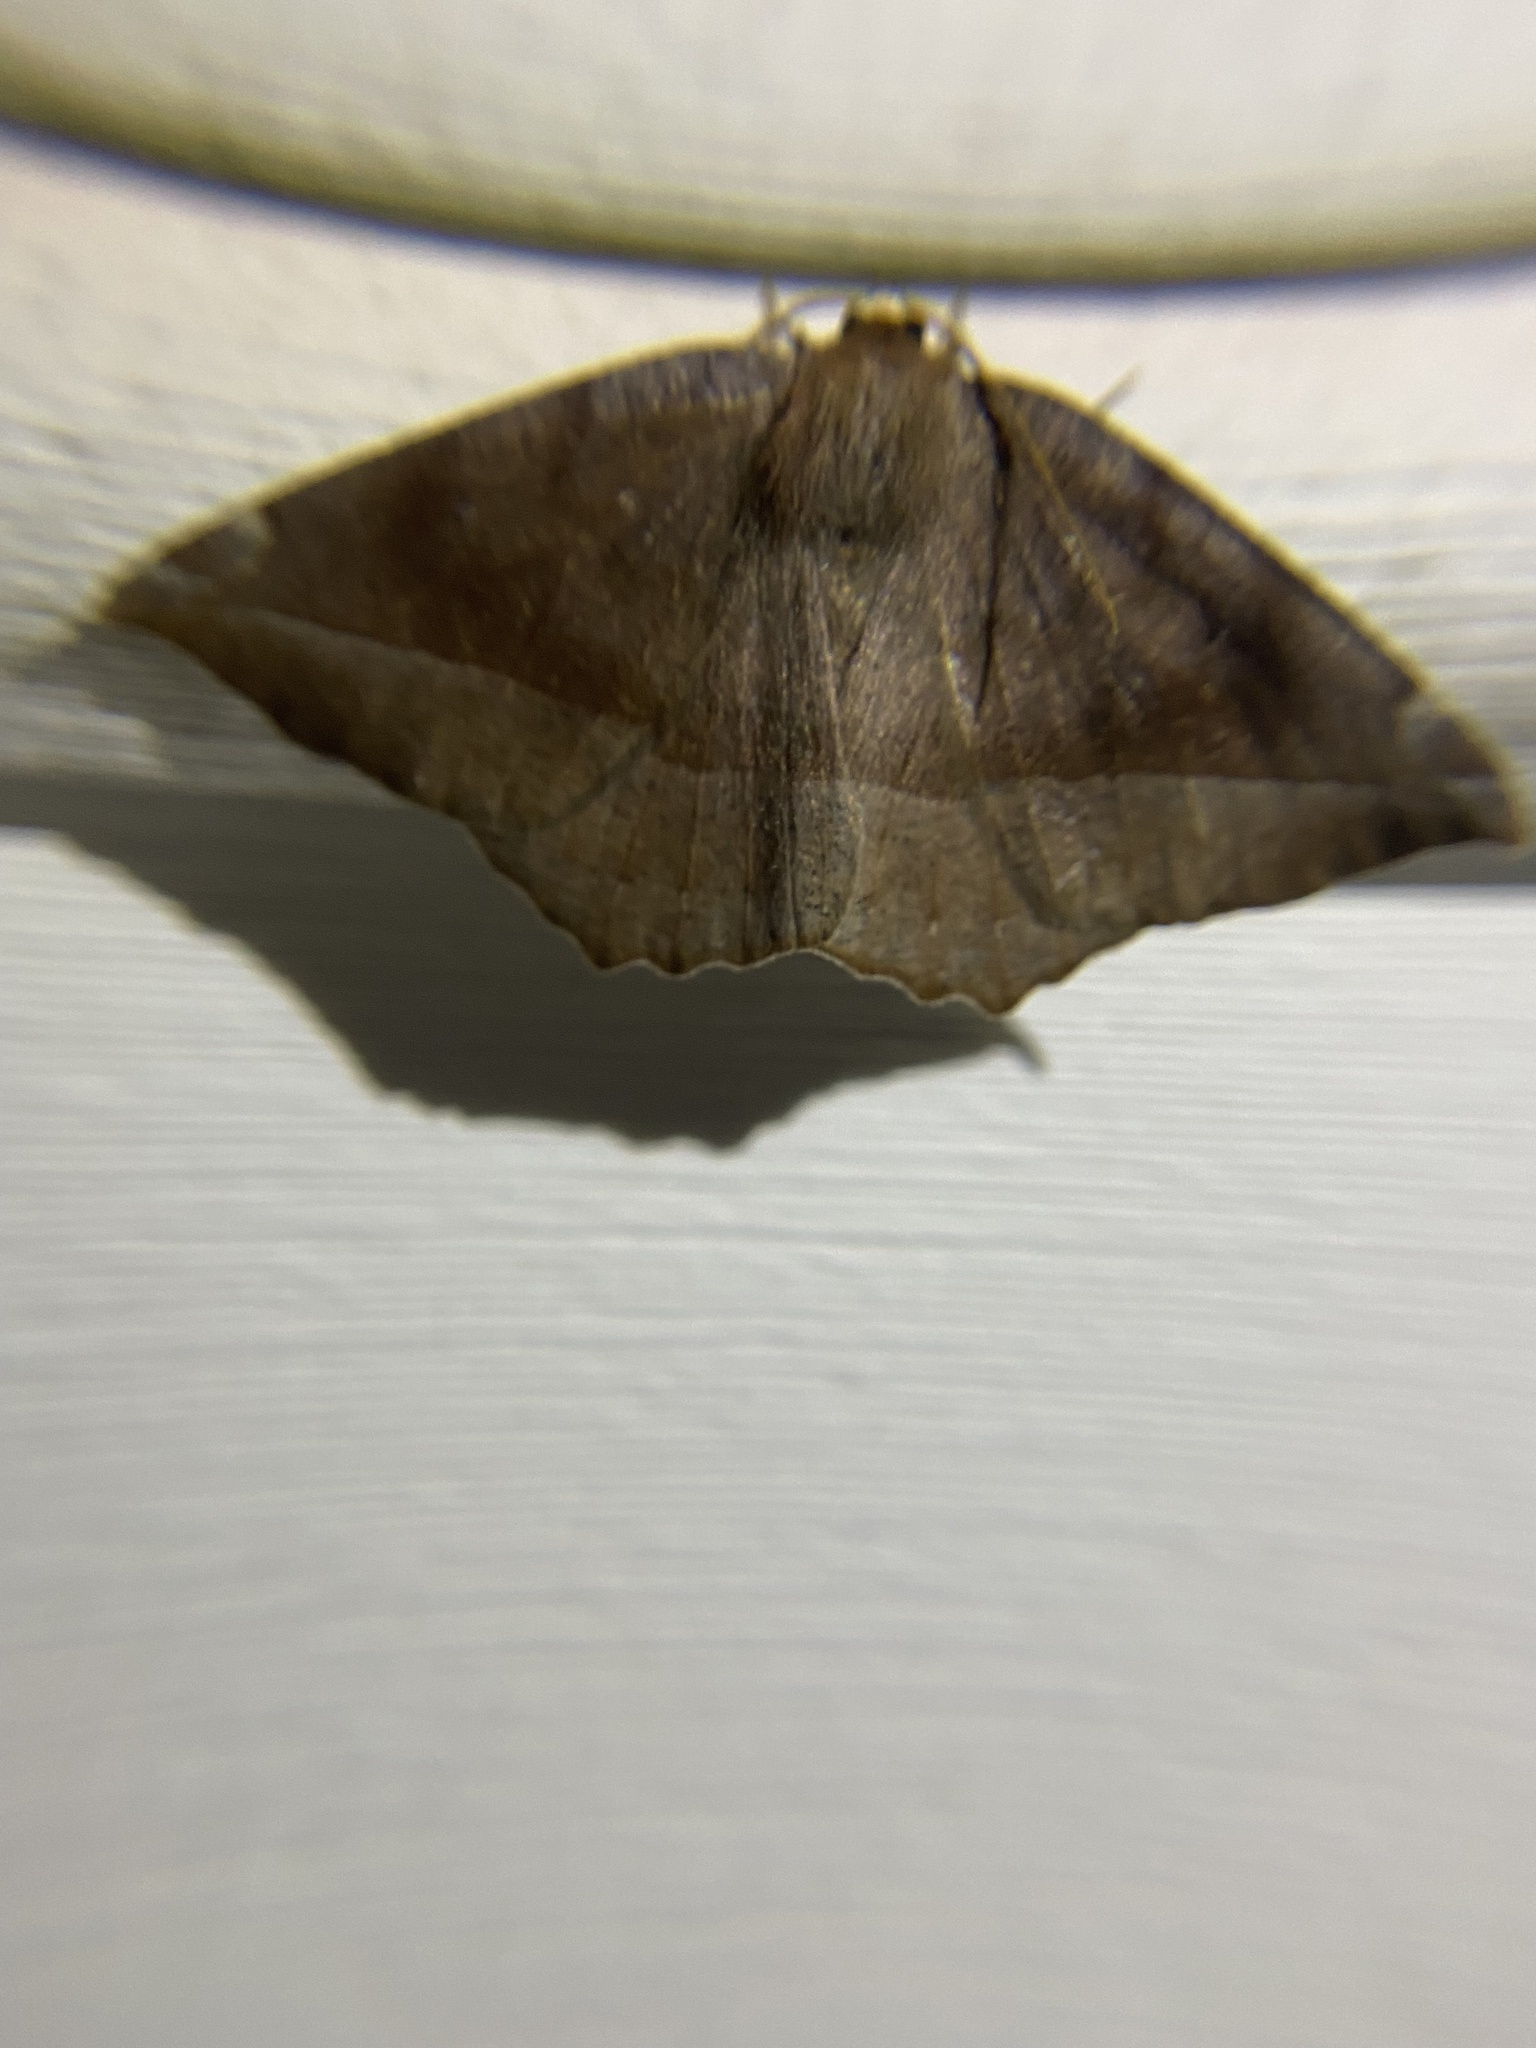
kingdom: Animalia
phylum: Arthropoda
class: Insecta
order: Lepidoptera
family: Geometridae
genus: Eutrapela
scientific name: Eutrapela clemataria
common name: Curved-toothed geometer
